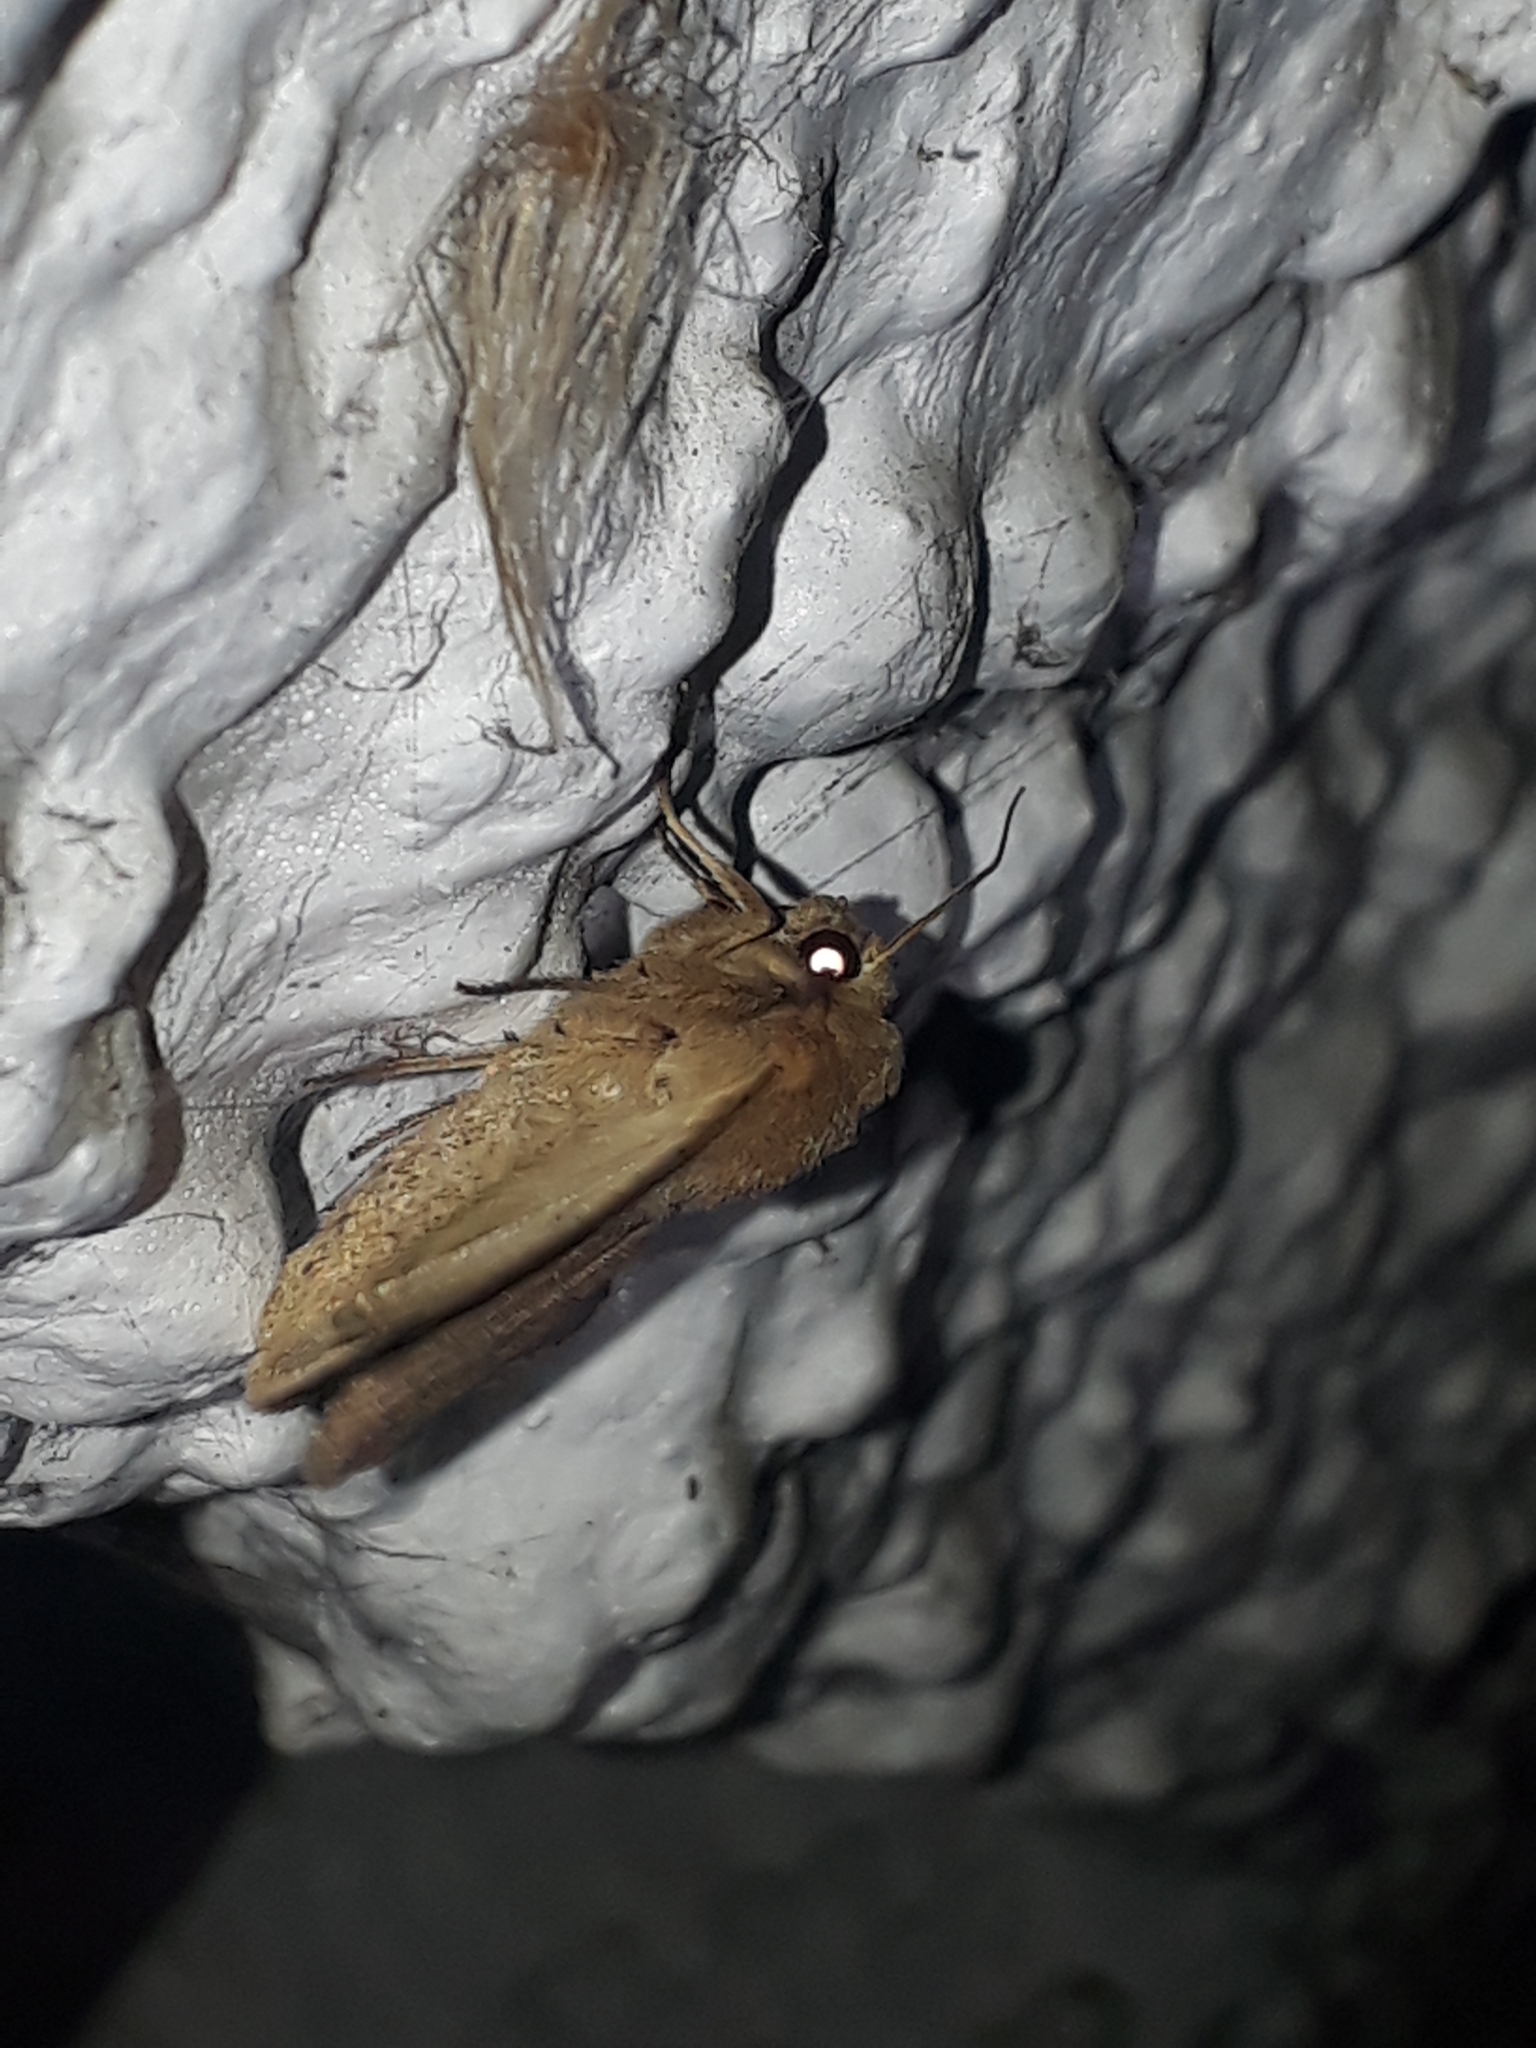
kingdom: Animalia
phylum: Arthropoda
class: Insecta
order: Lepidoptera
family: Noctuidae
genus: Mythimna
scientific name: Mythimna separata
